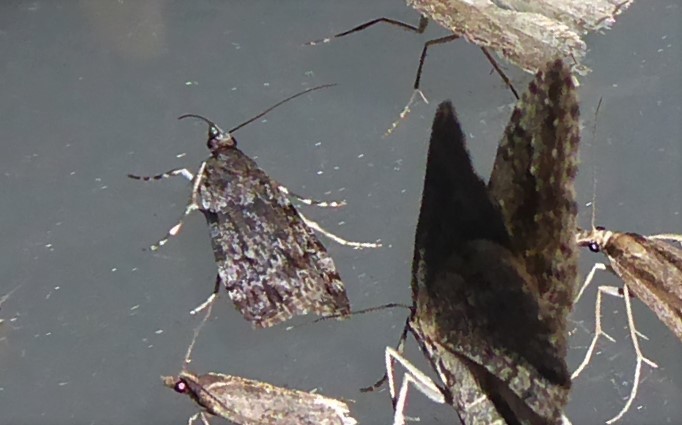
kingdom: Animalia
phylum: Arthropoda
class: Insecta
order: Lepidoptera
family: Crambidae
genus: Eudonia
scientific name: Eudonia cymatias
